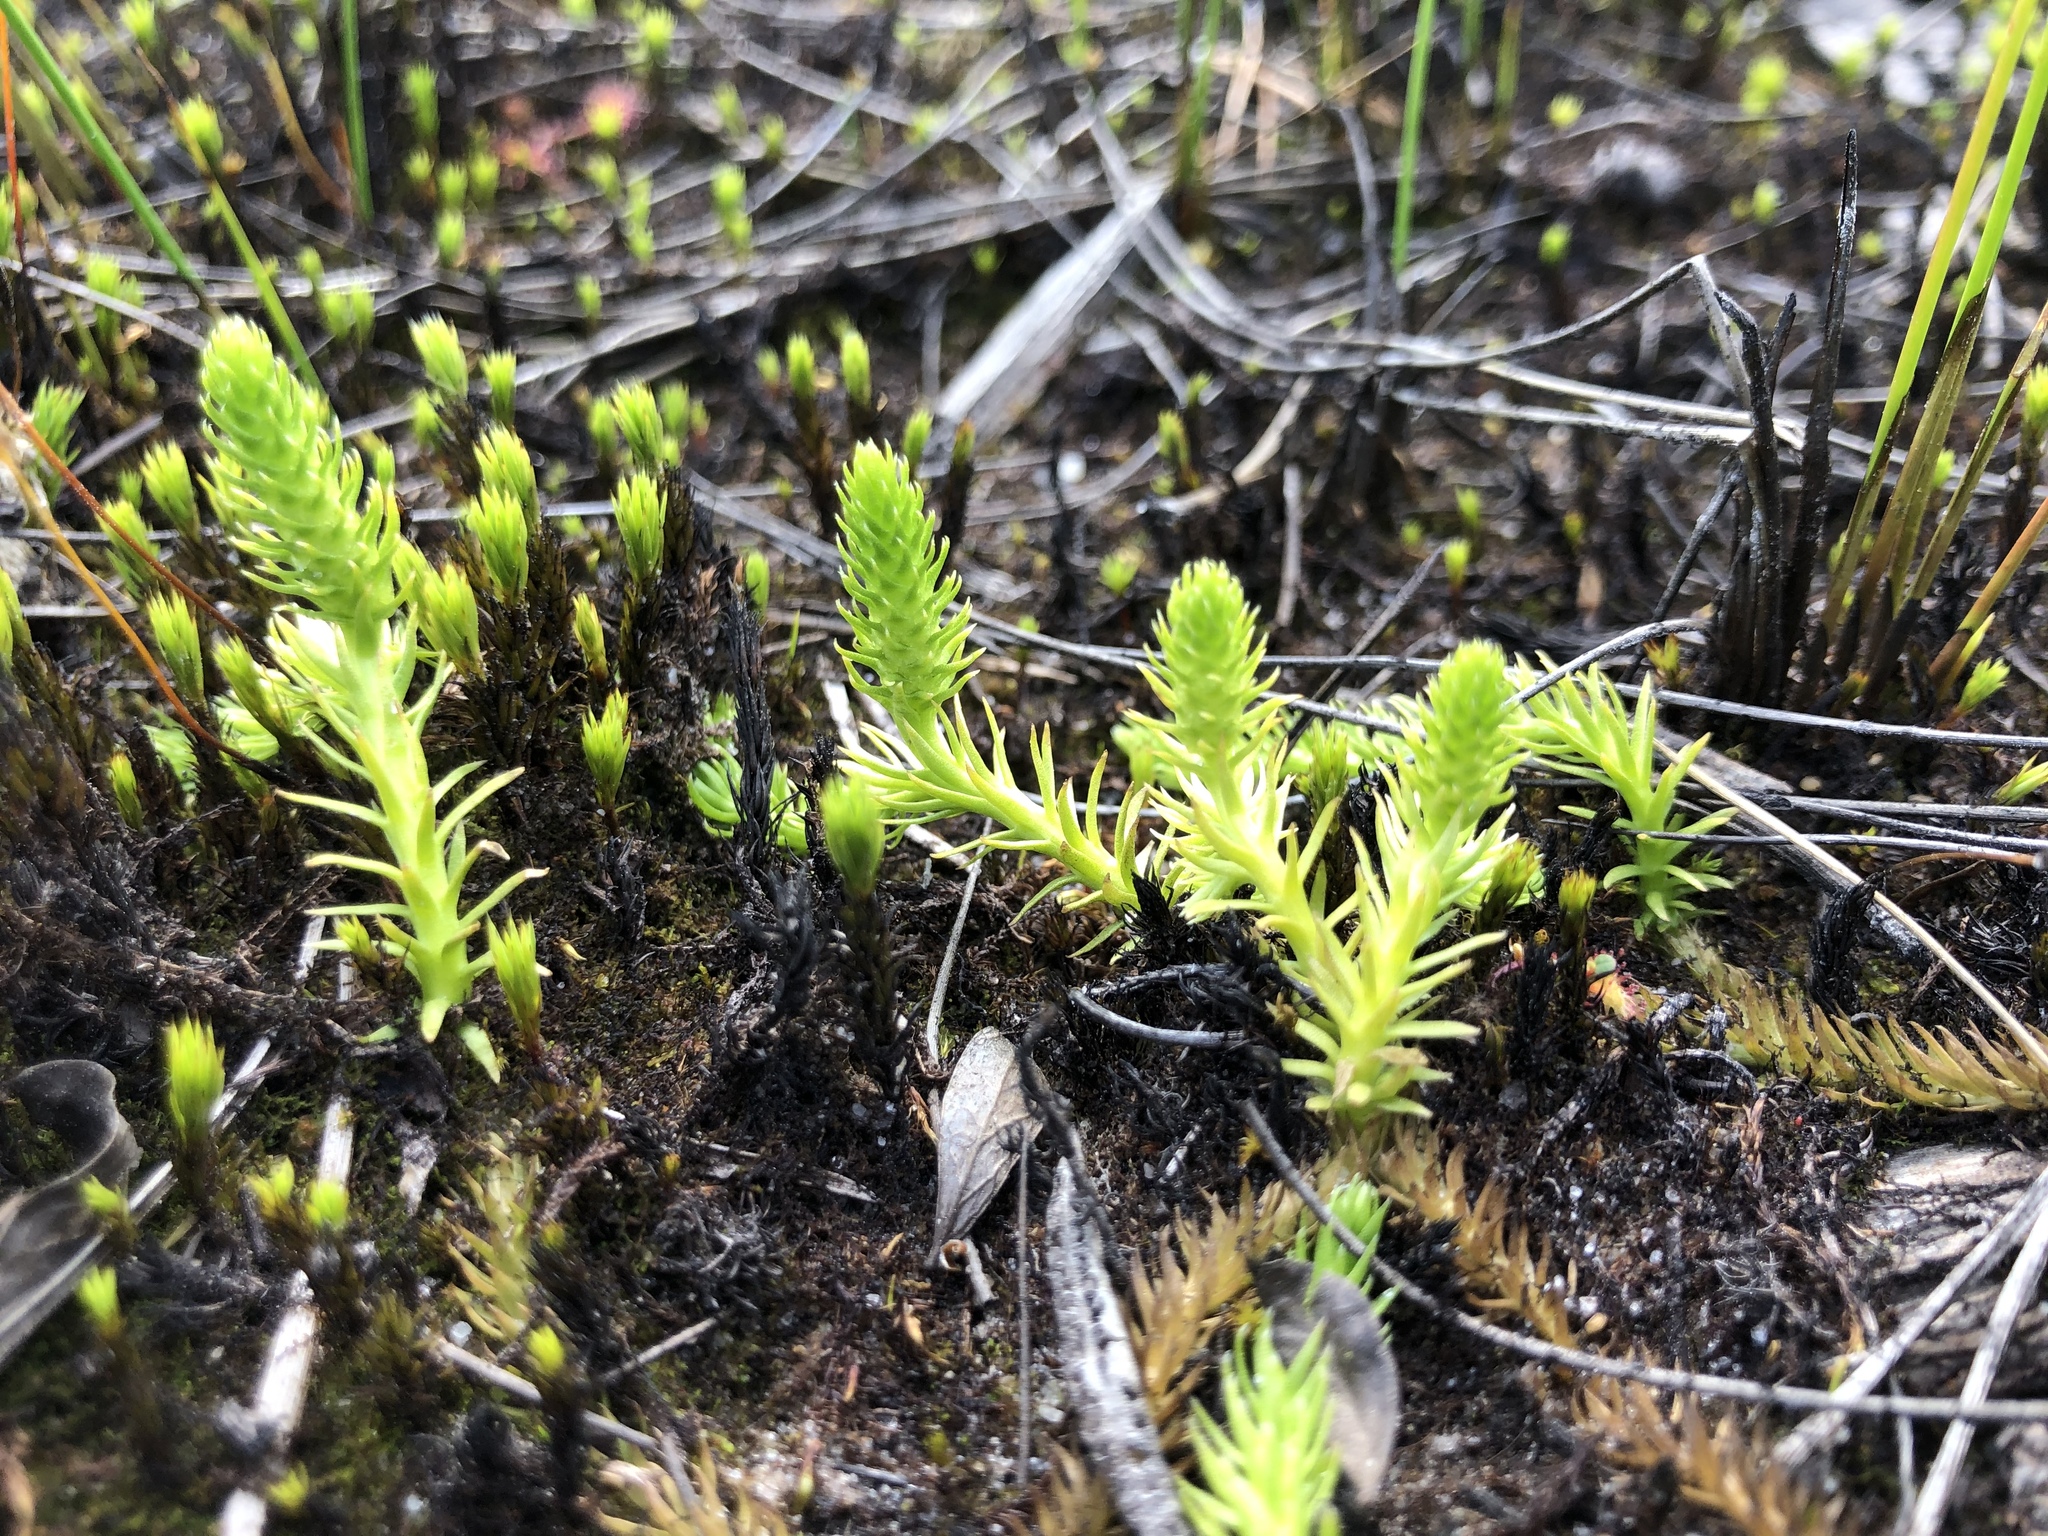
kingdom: Plantae
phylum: Tracheophyta
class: Lycopodiopsida
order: Lycopodiales
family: Lycopodiaceae
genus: Lycopodiella
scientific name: Lycopodiella inundata
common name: Marsh clubmoss
